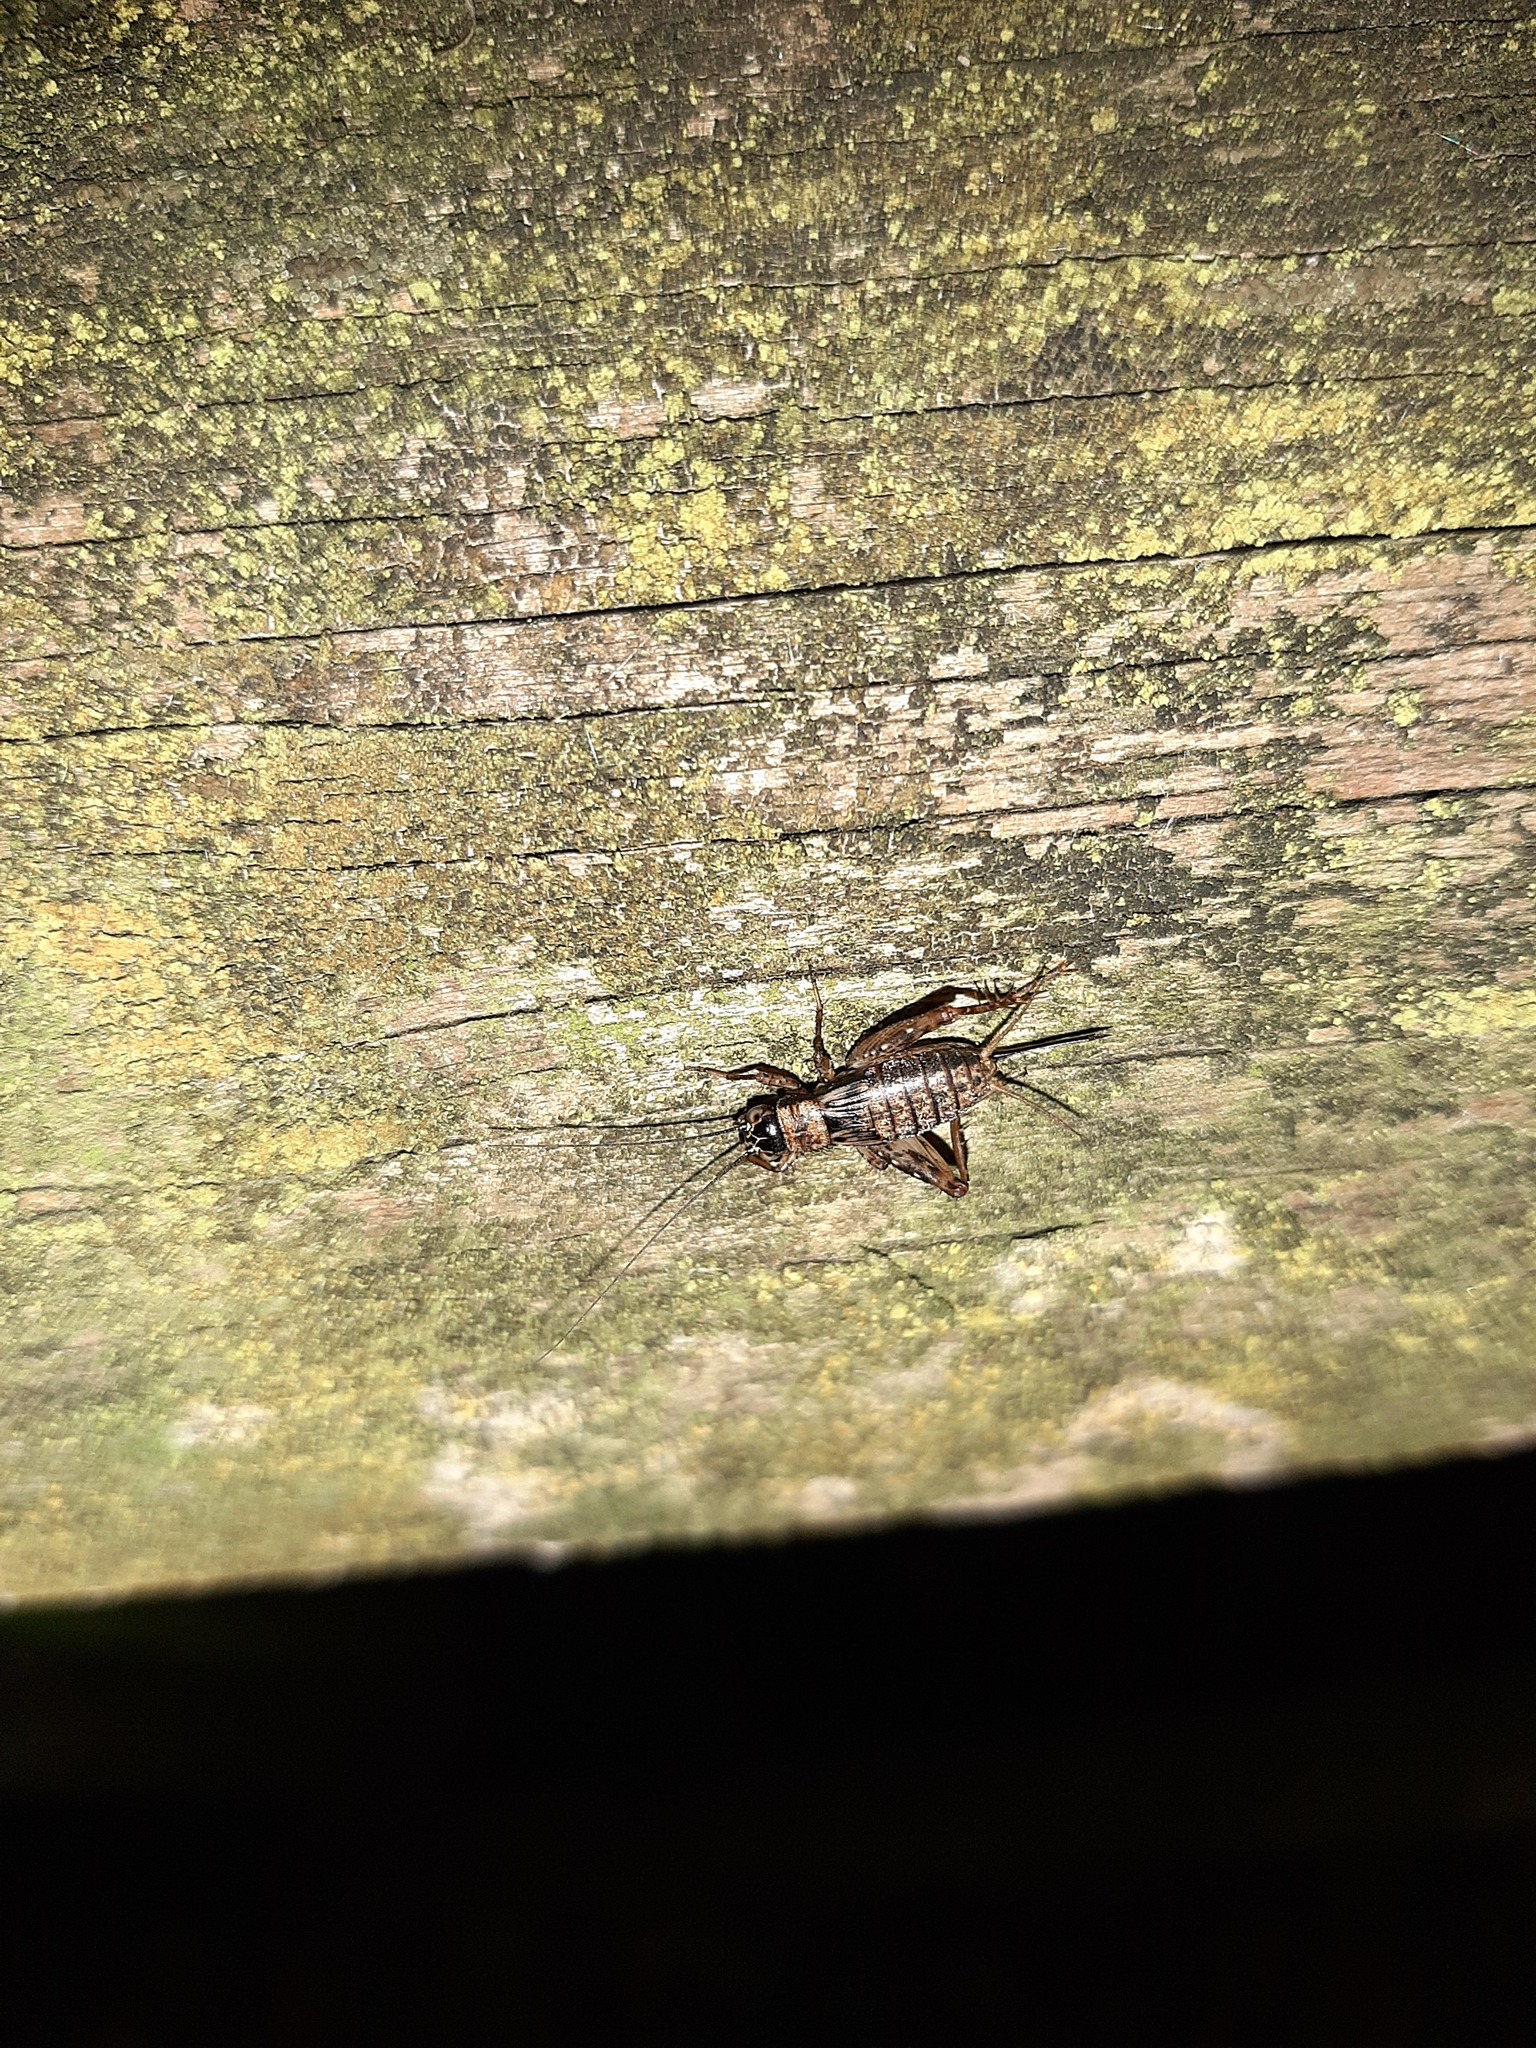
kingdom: Animalia
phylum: Arthropoda
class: Insecta
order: Orthoptera
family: Trigonidiidae
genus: Nemobius
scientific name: Nemobius sylvestris
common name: Wood-cricket
